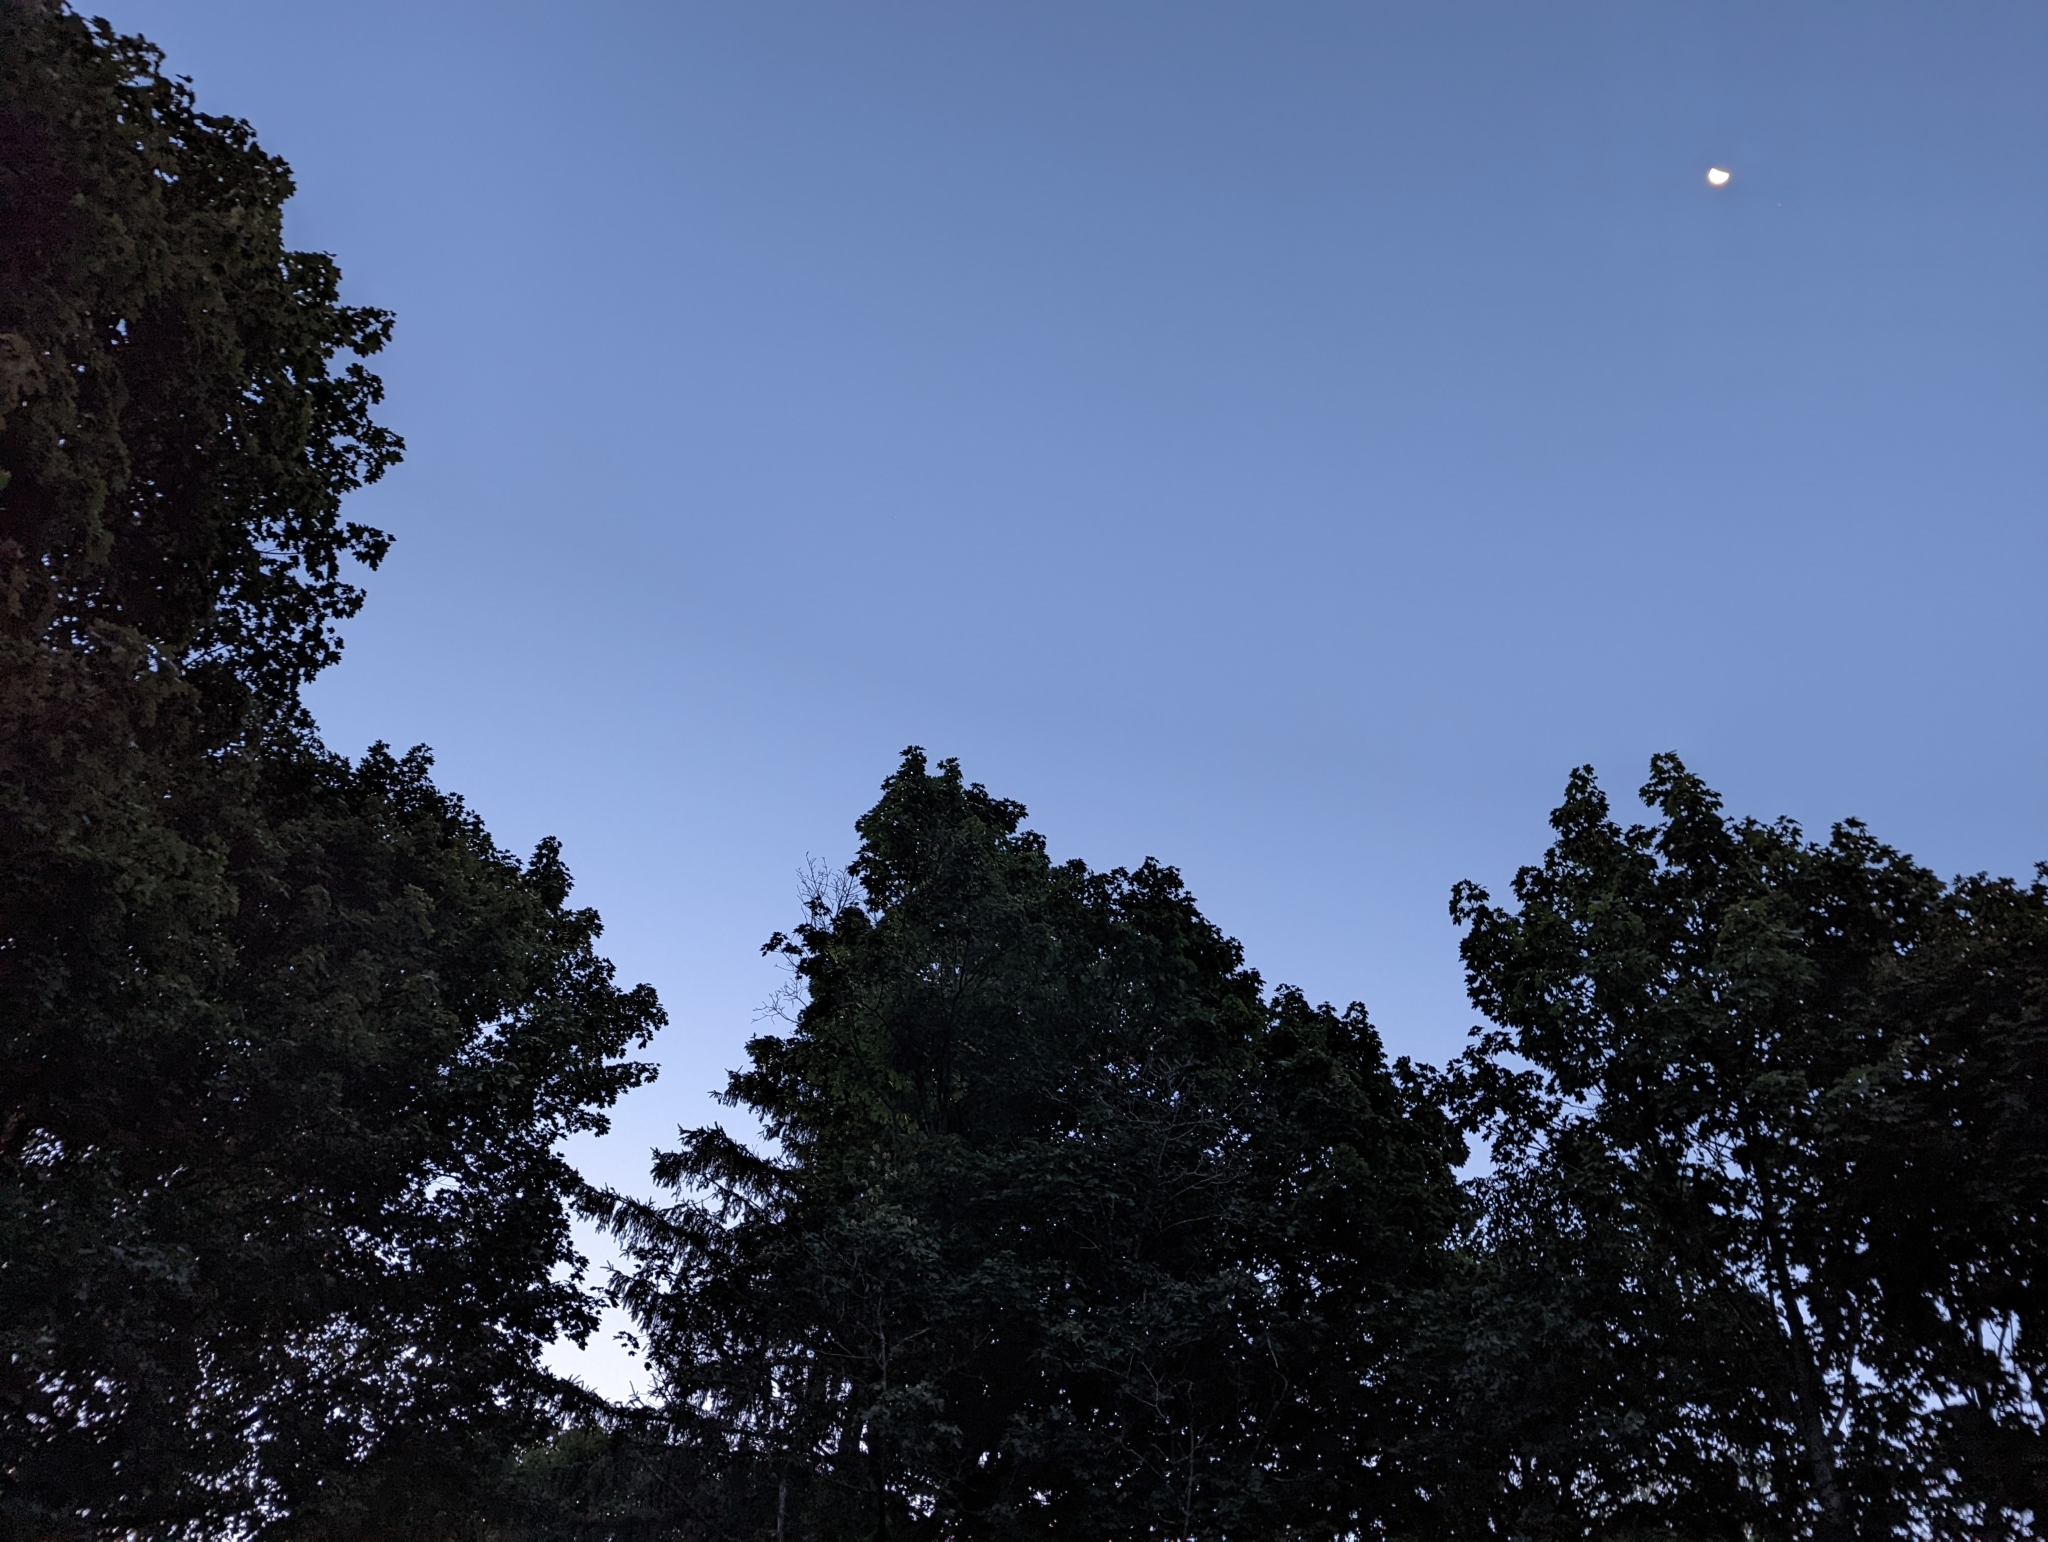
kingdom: Animalia
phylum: Chordata
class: Aves
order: Passeriformes
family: Corvidae
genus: Cyanocitta
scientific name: Cyanocitta cristata
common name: Blue jay
